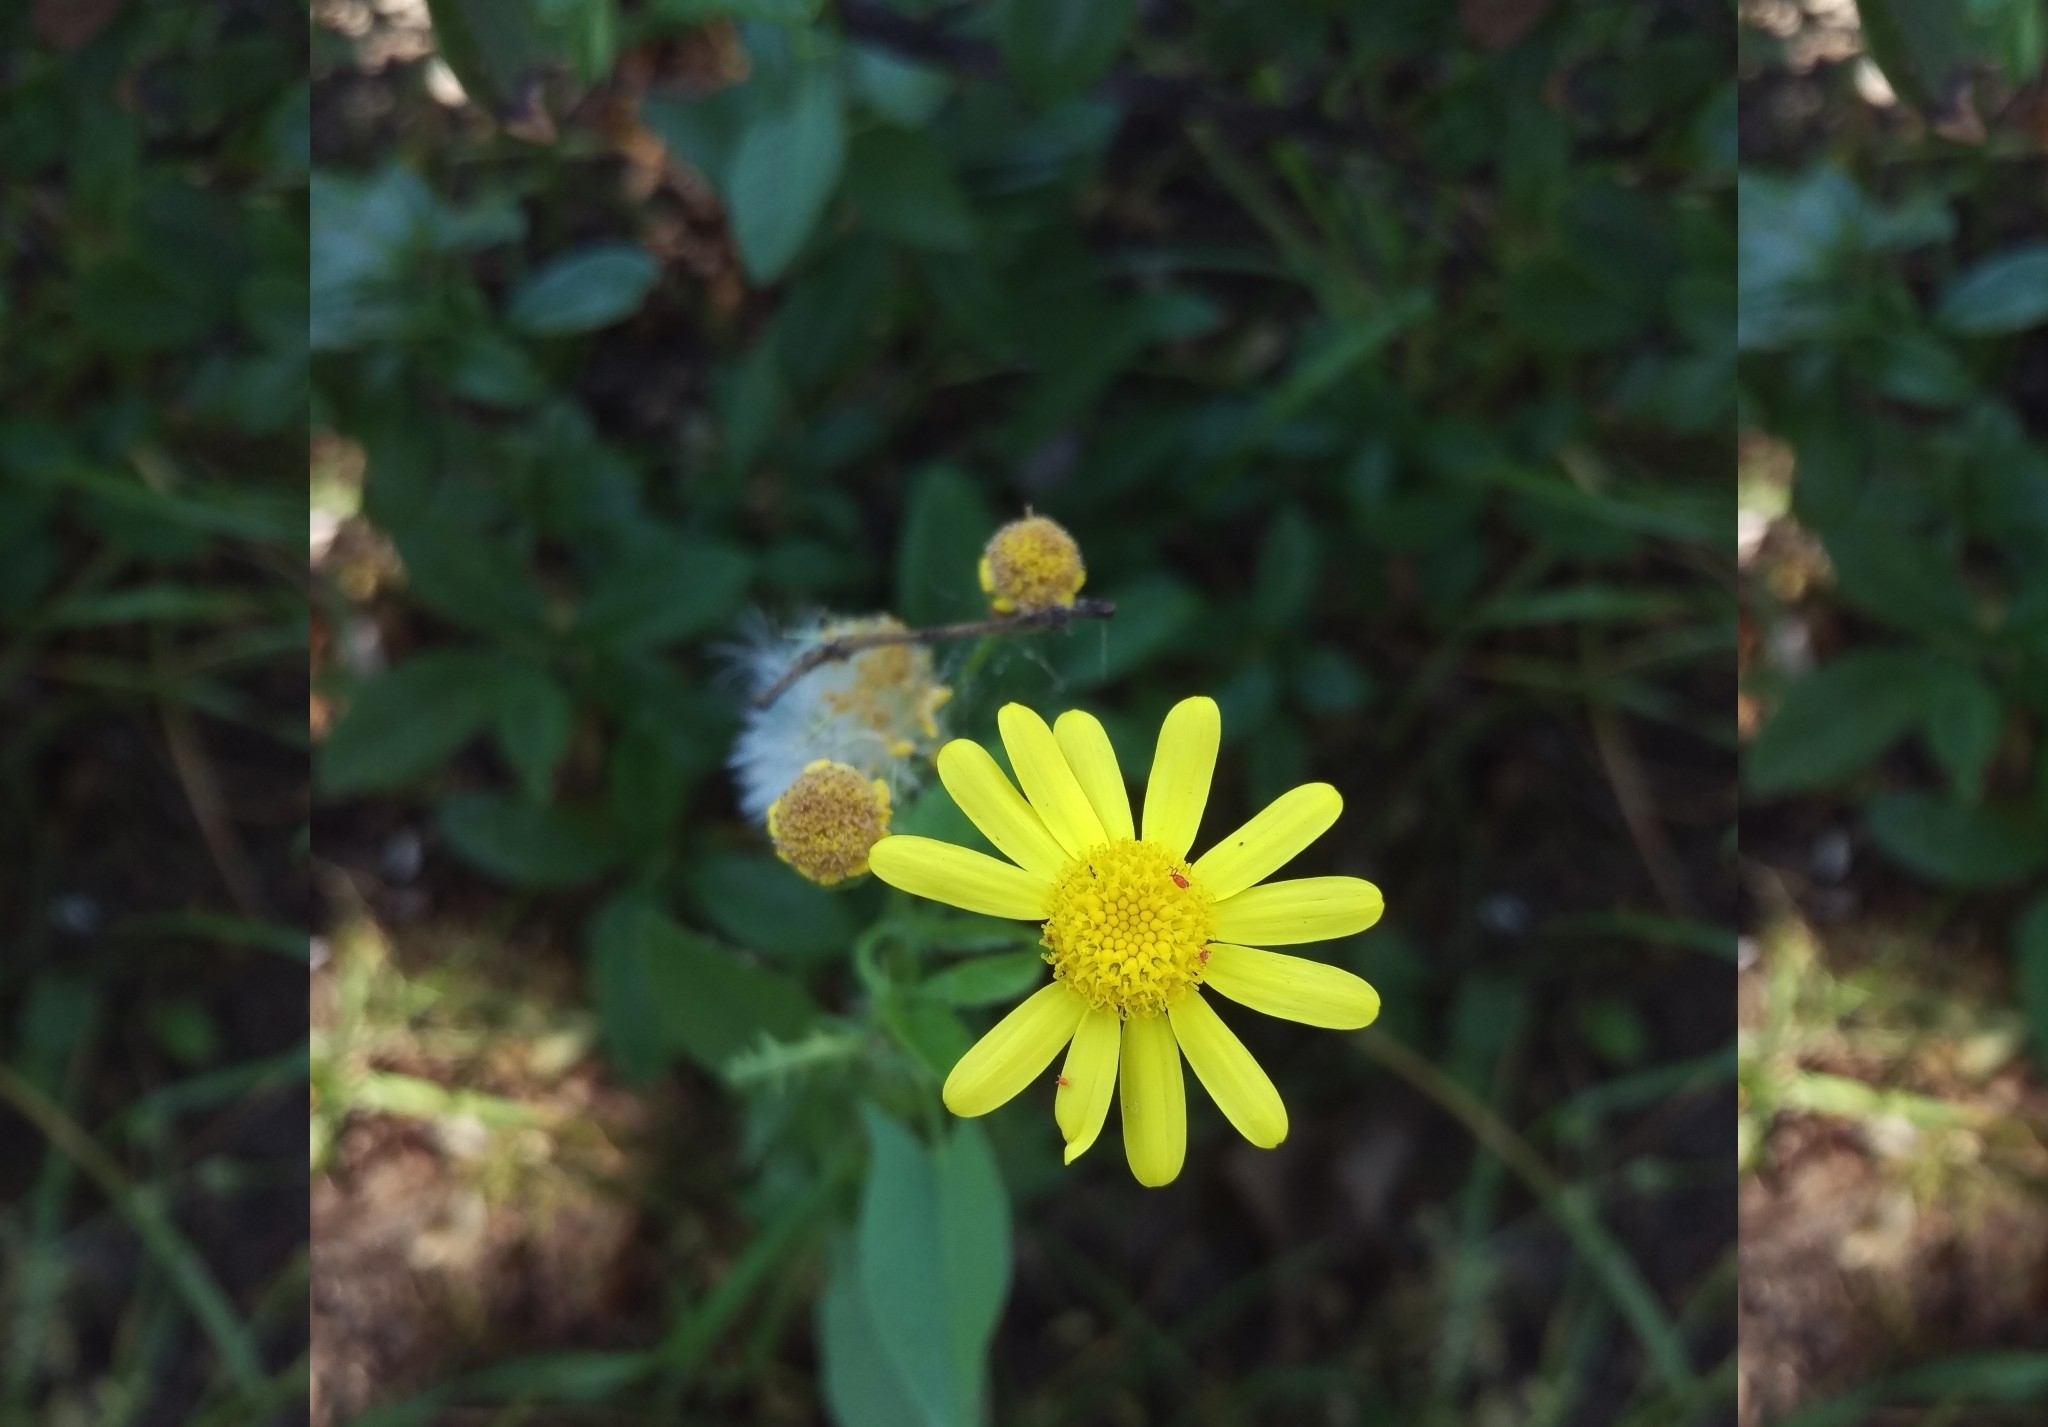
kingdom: Plantae
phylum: Tracheophyta
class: Magnoliopsida
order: Asterales
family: Asteraceae
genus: Senecio
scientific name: Senecio vernalis
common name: Eastern groundsel
